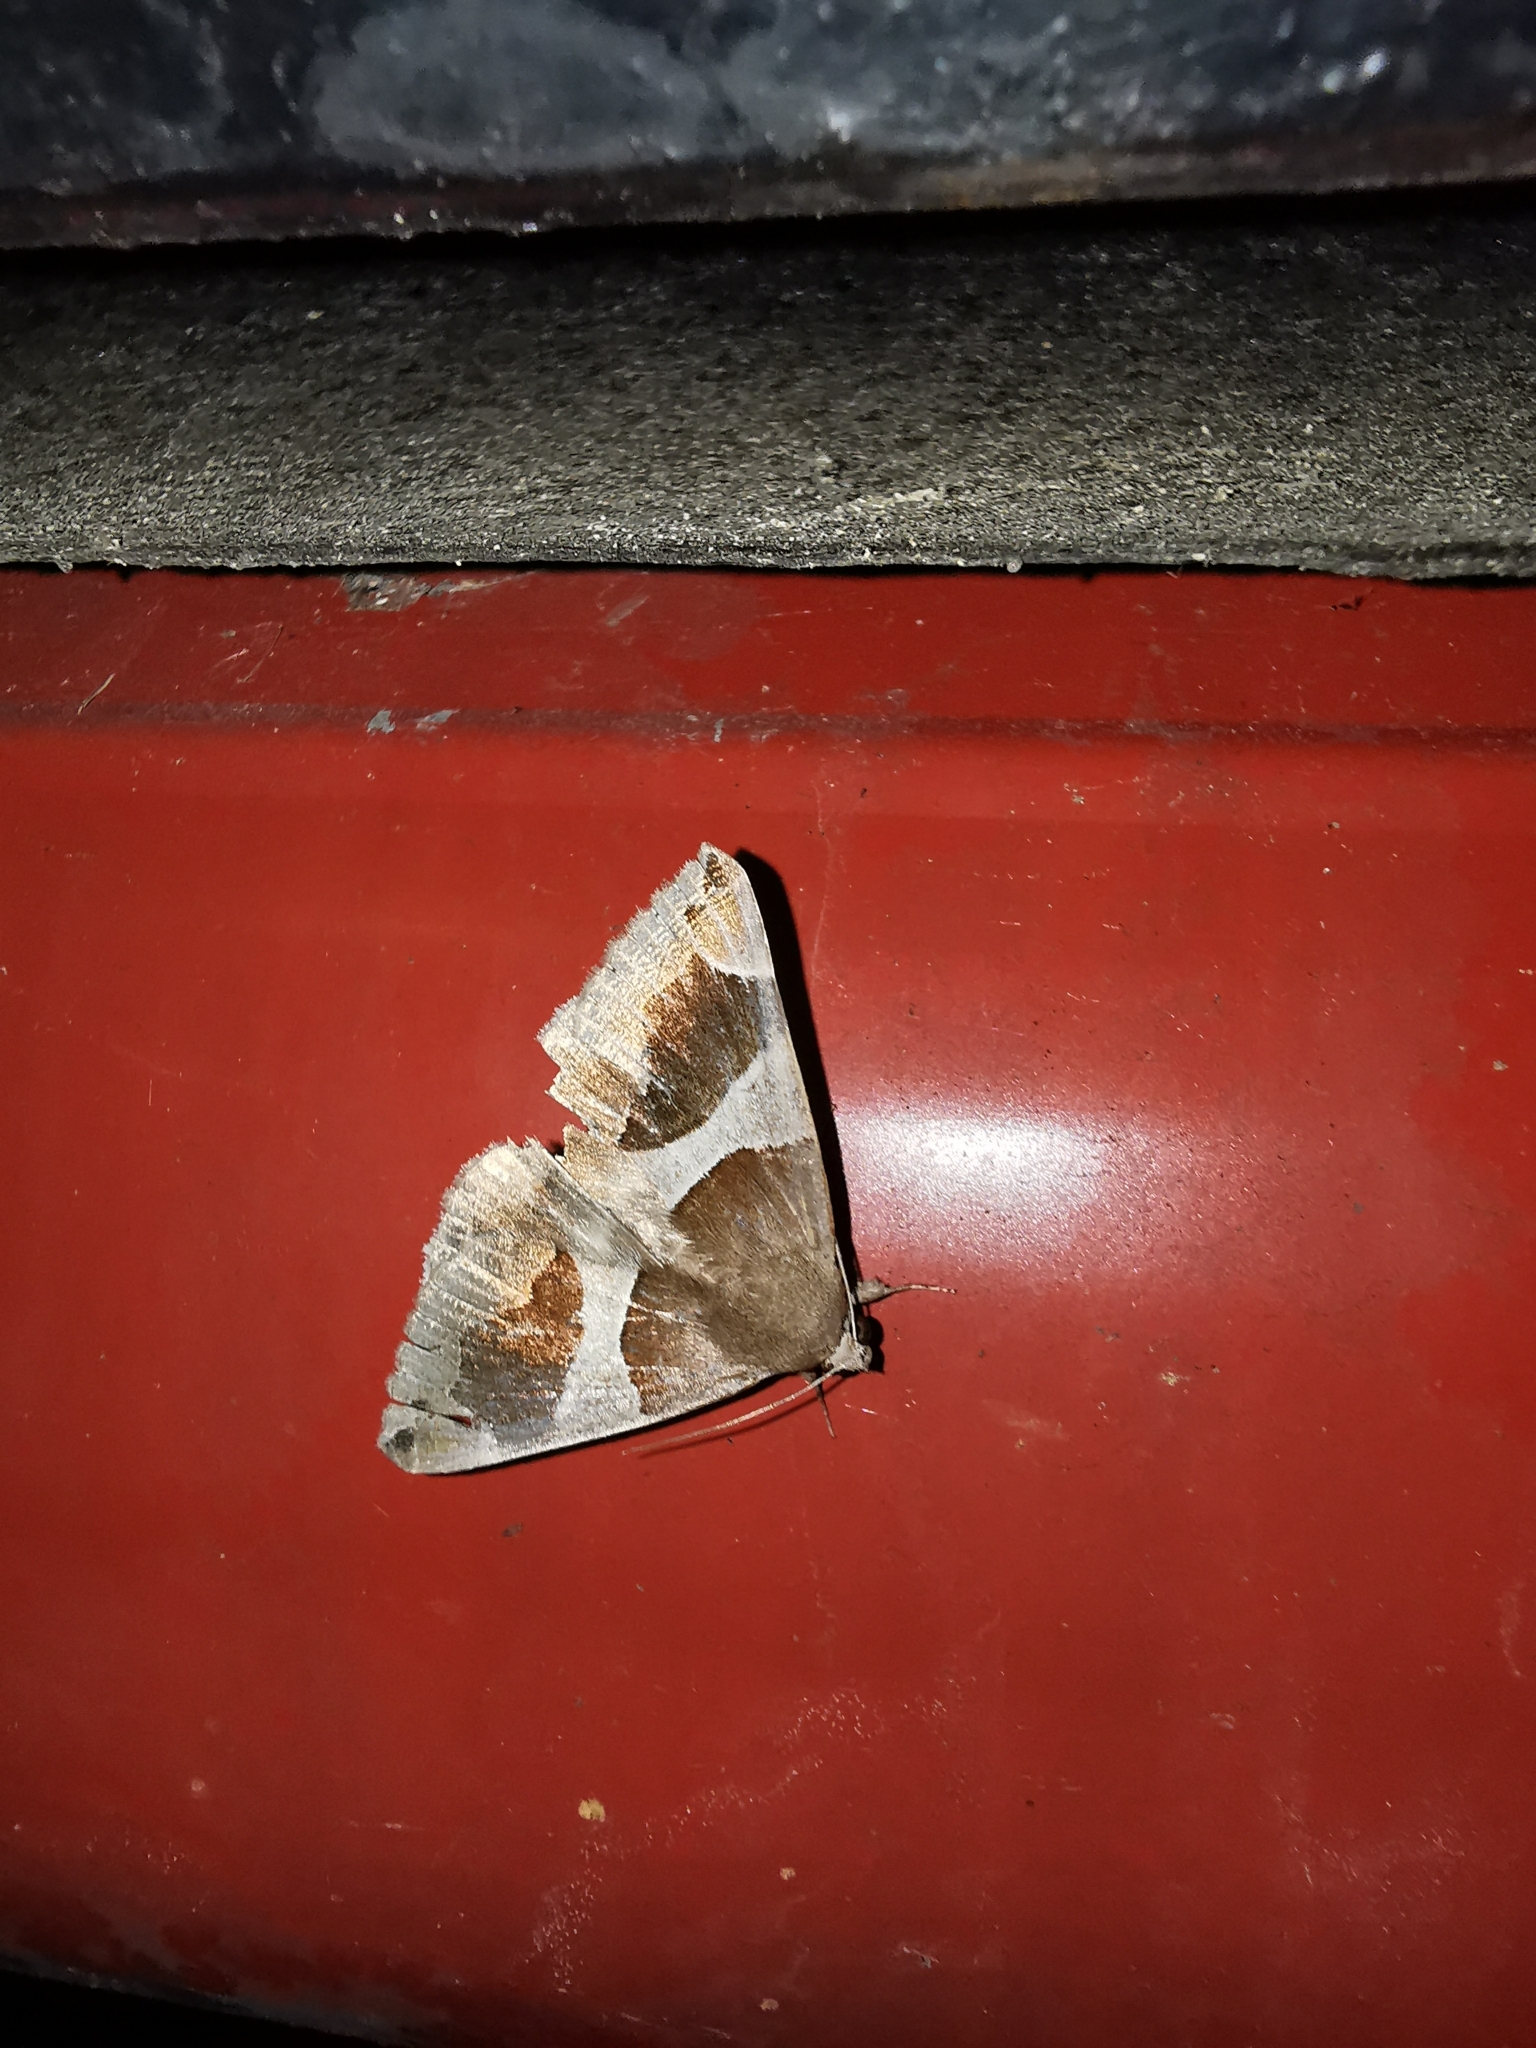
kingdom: Animalia
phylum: Arthropoda
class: Insecta
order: Lepidoptera
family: Erebidae
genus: Dysgonia
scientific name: Dysgonia algira
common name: Passenger
